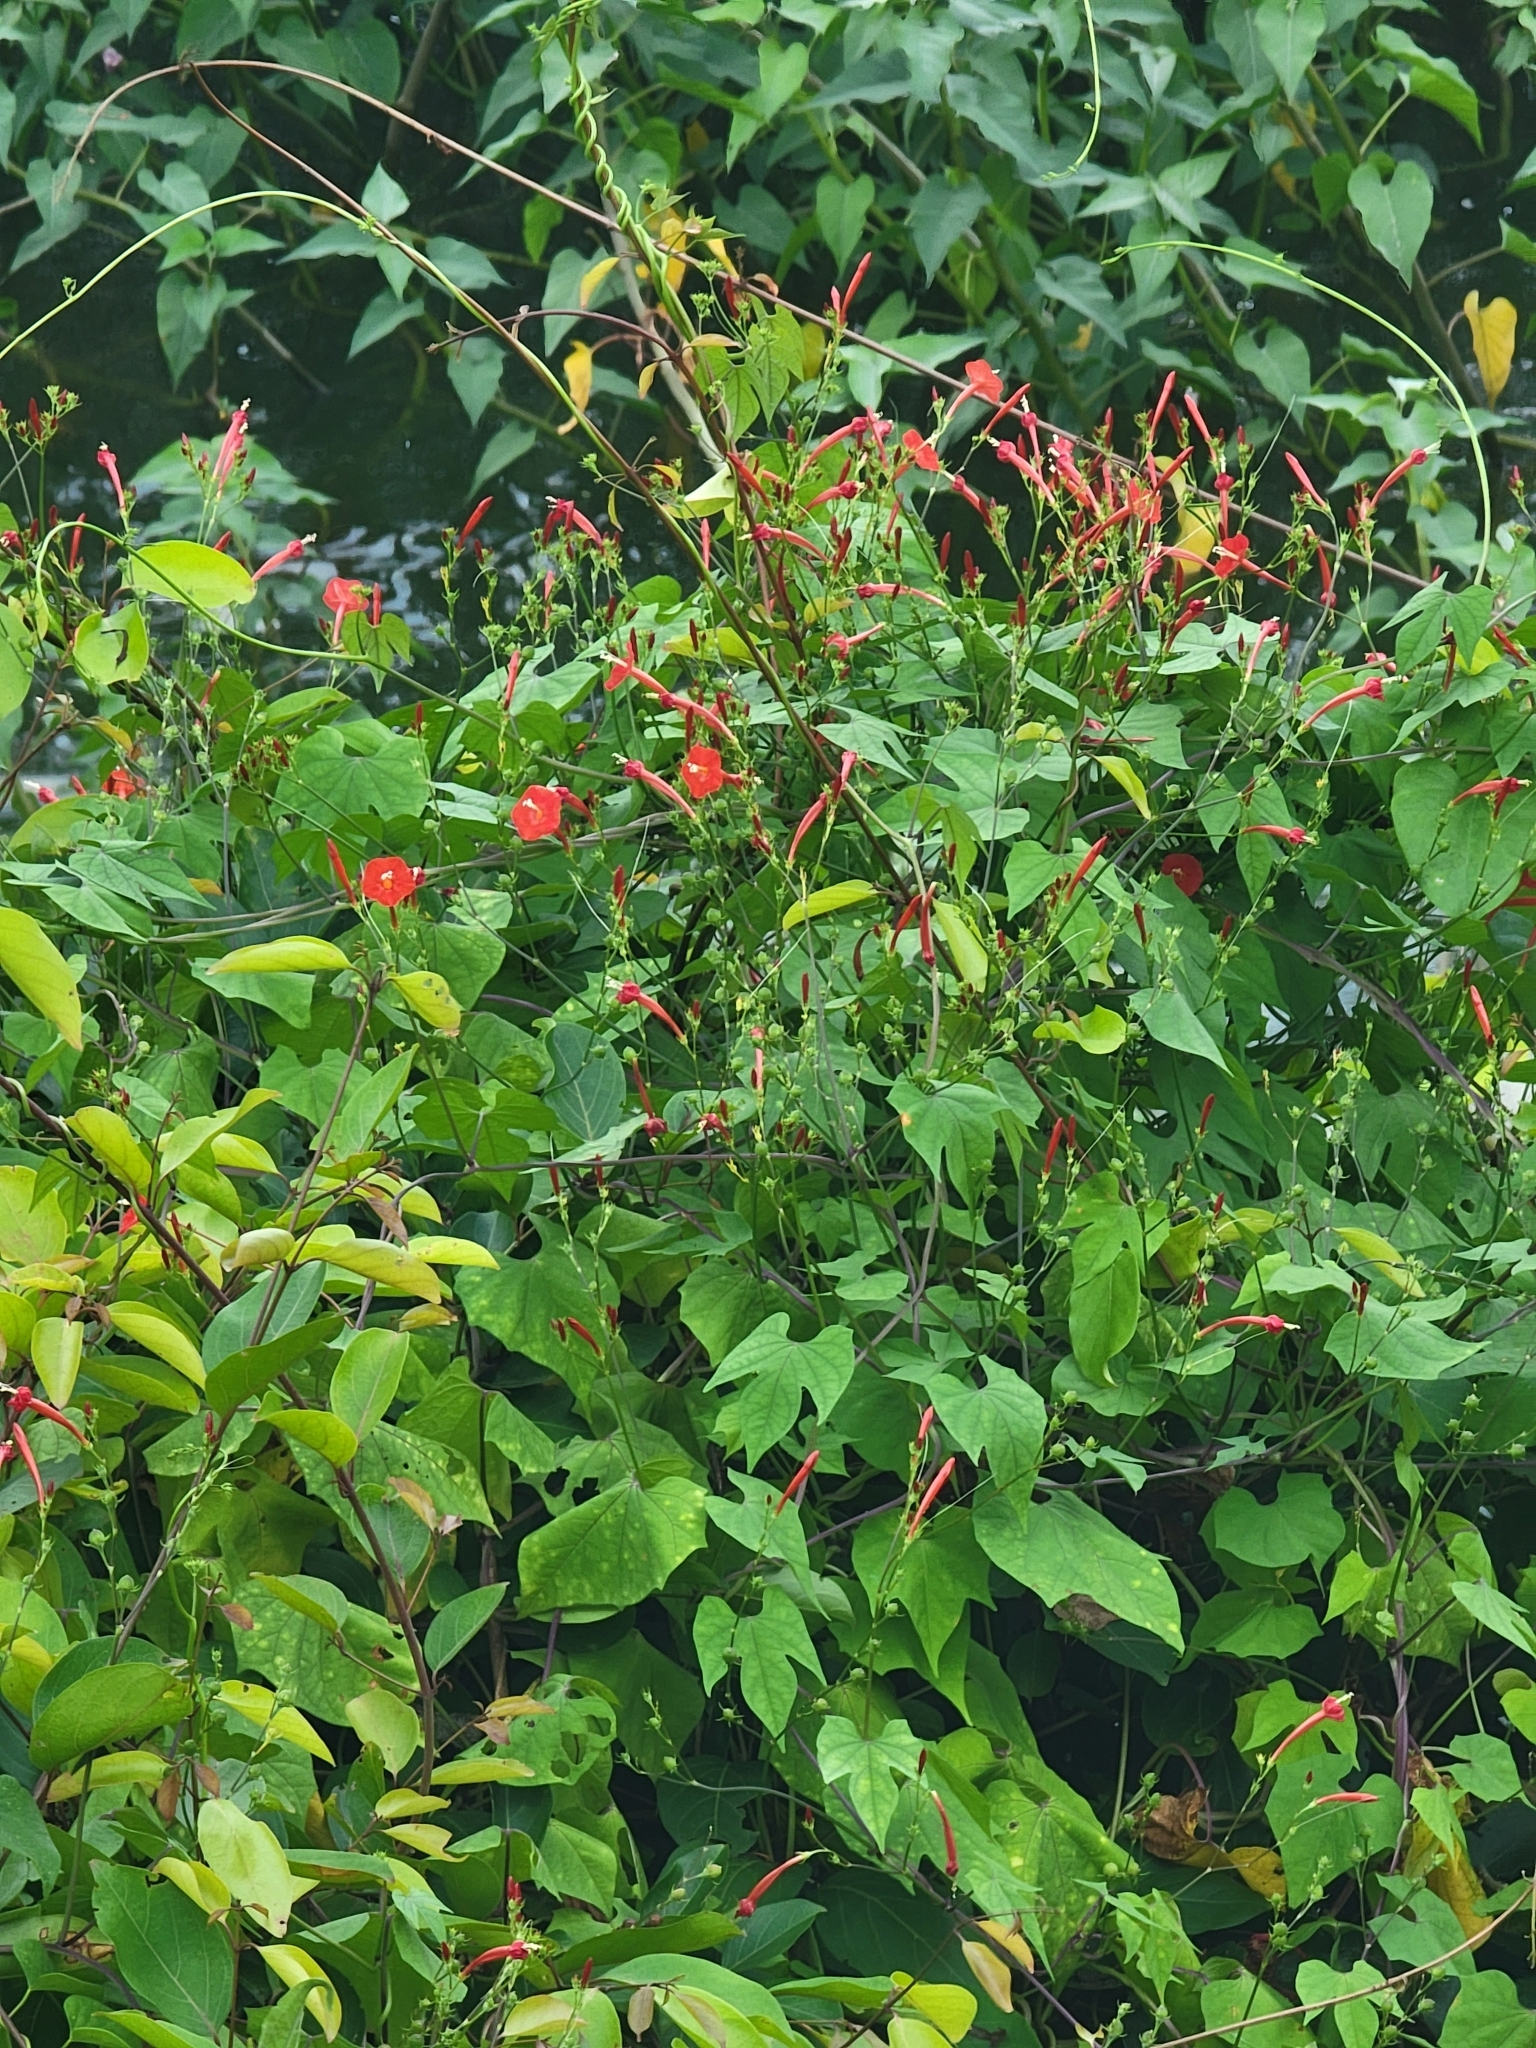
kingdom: Plantae
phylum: Tracheophyta
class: Magnoliopsida
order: Solanales
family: Convolvulaceae
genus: Ipomoea
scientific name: Ipomoea hederifolia
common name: Ivy-leaf morning-glory
